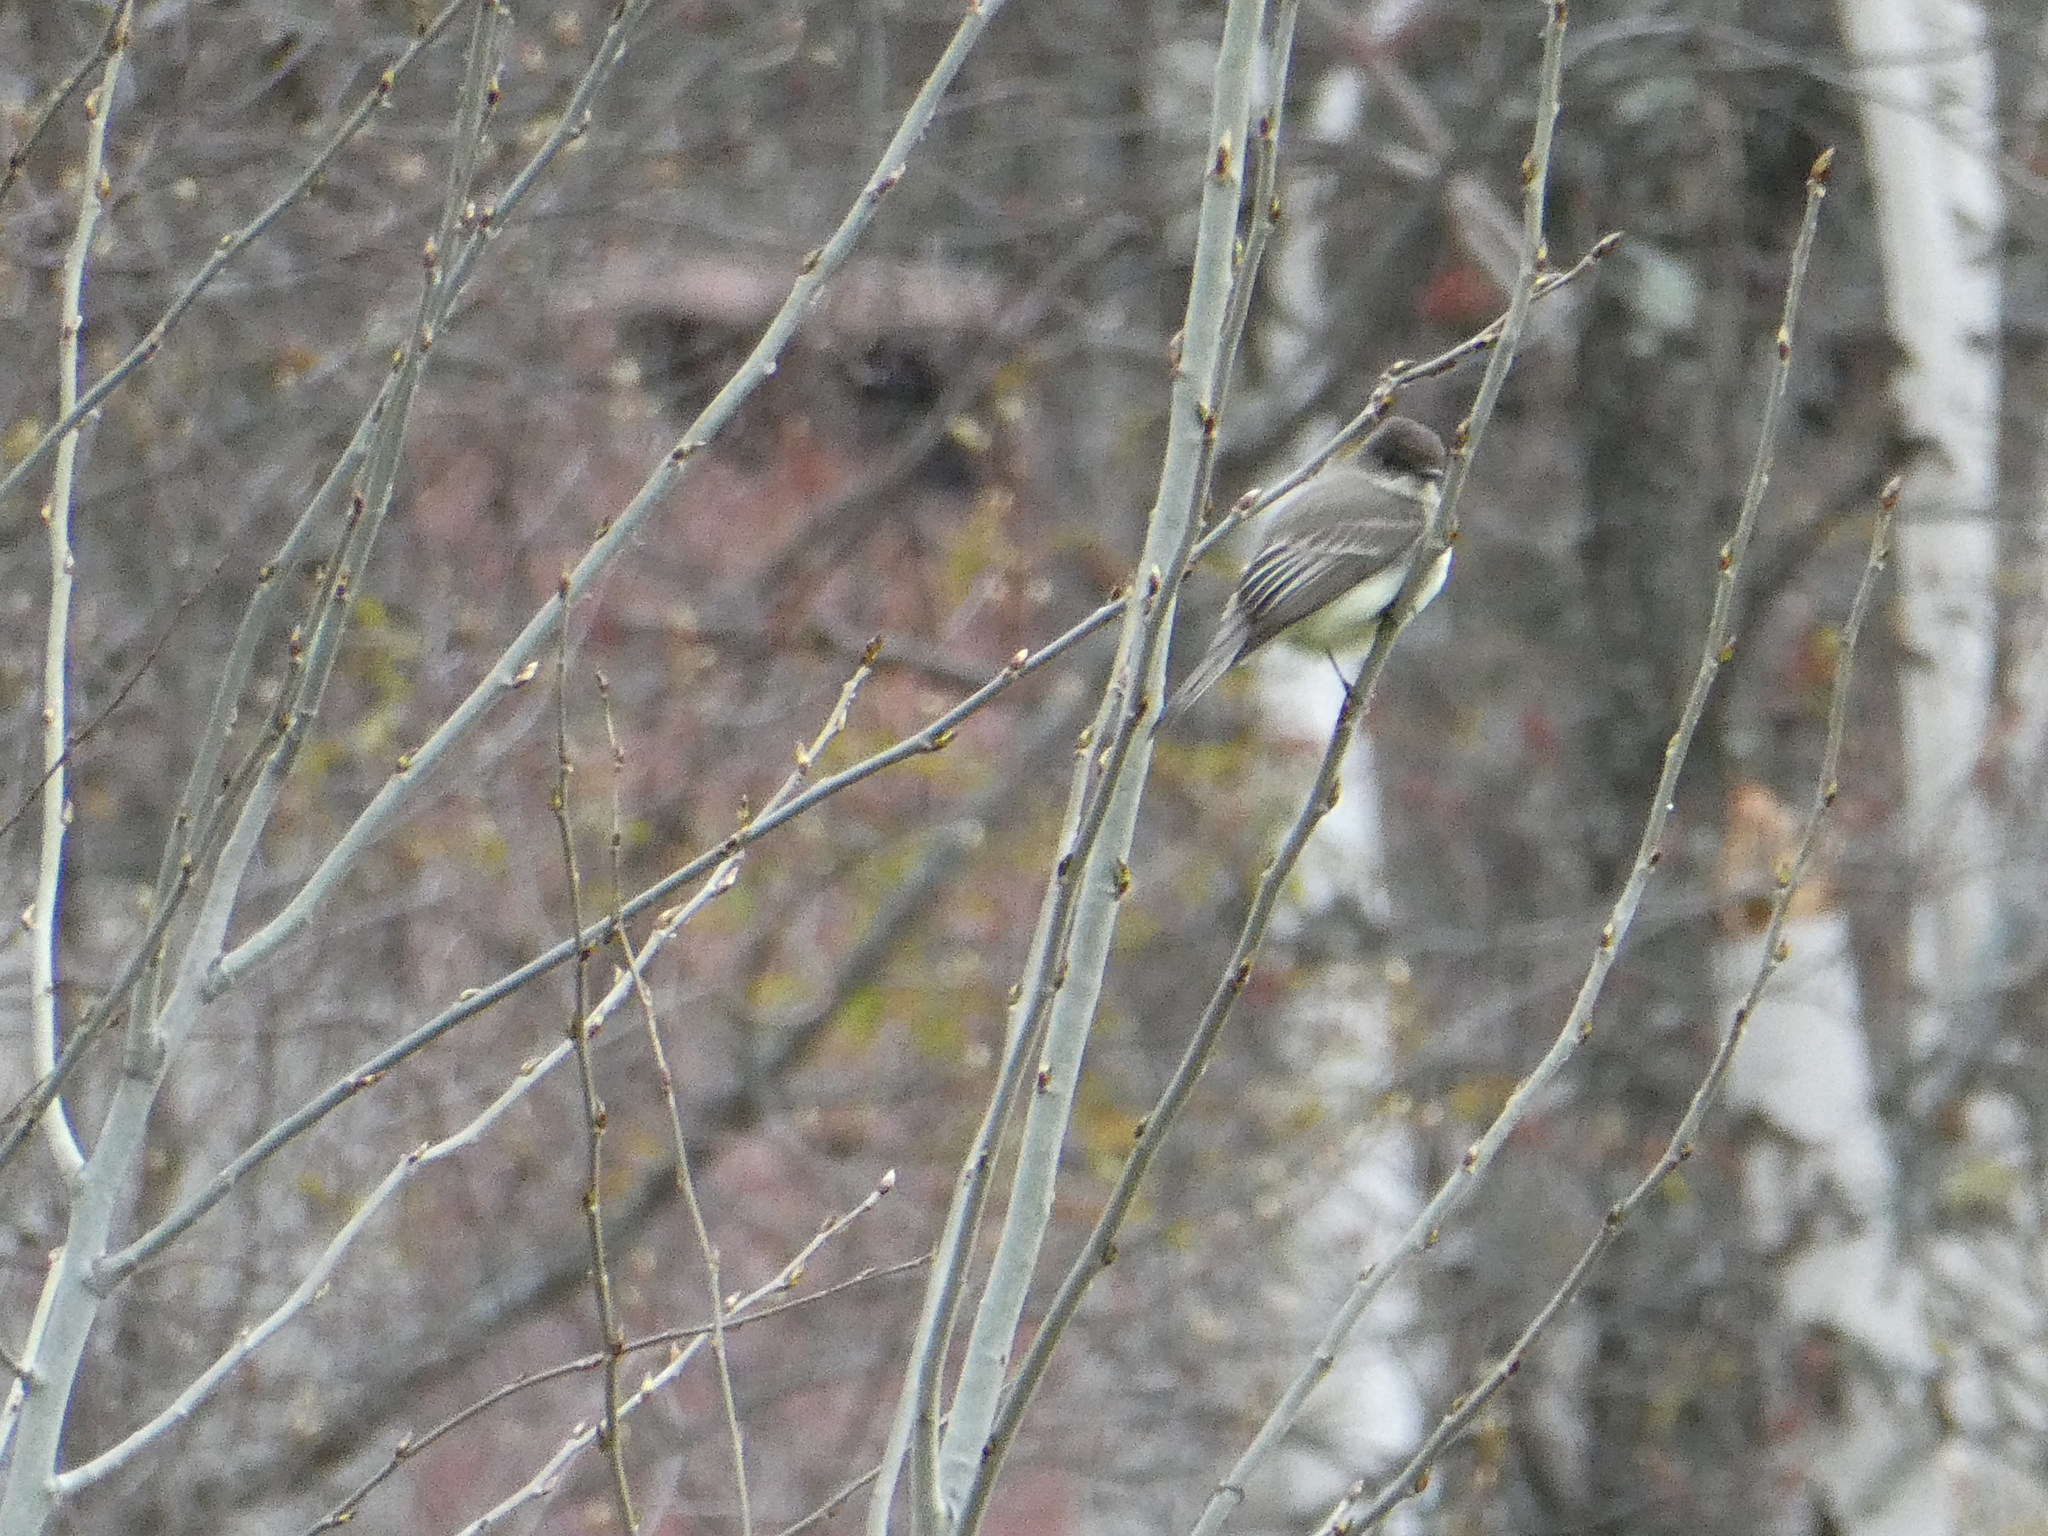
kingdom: Animalia
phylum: Chordata
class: Aves
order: Passeriformes
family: Tyrannidae
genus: Sayornis
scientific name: Sayornis phoebe
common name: Eastern phoebe
